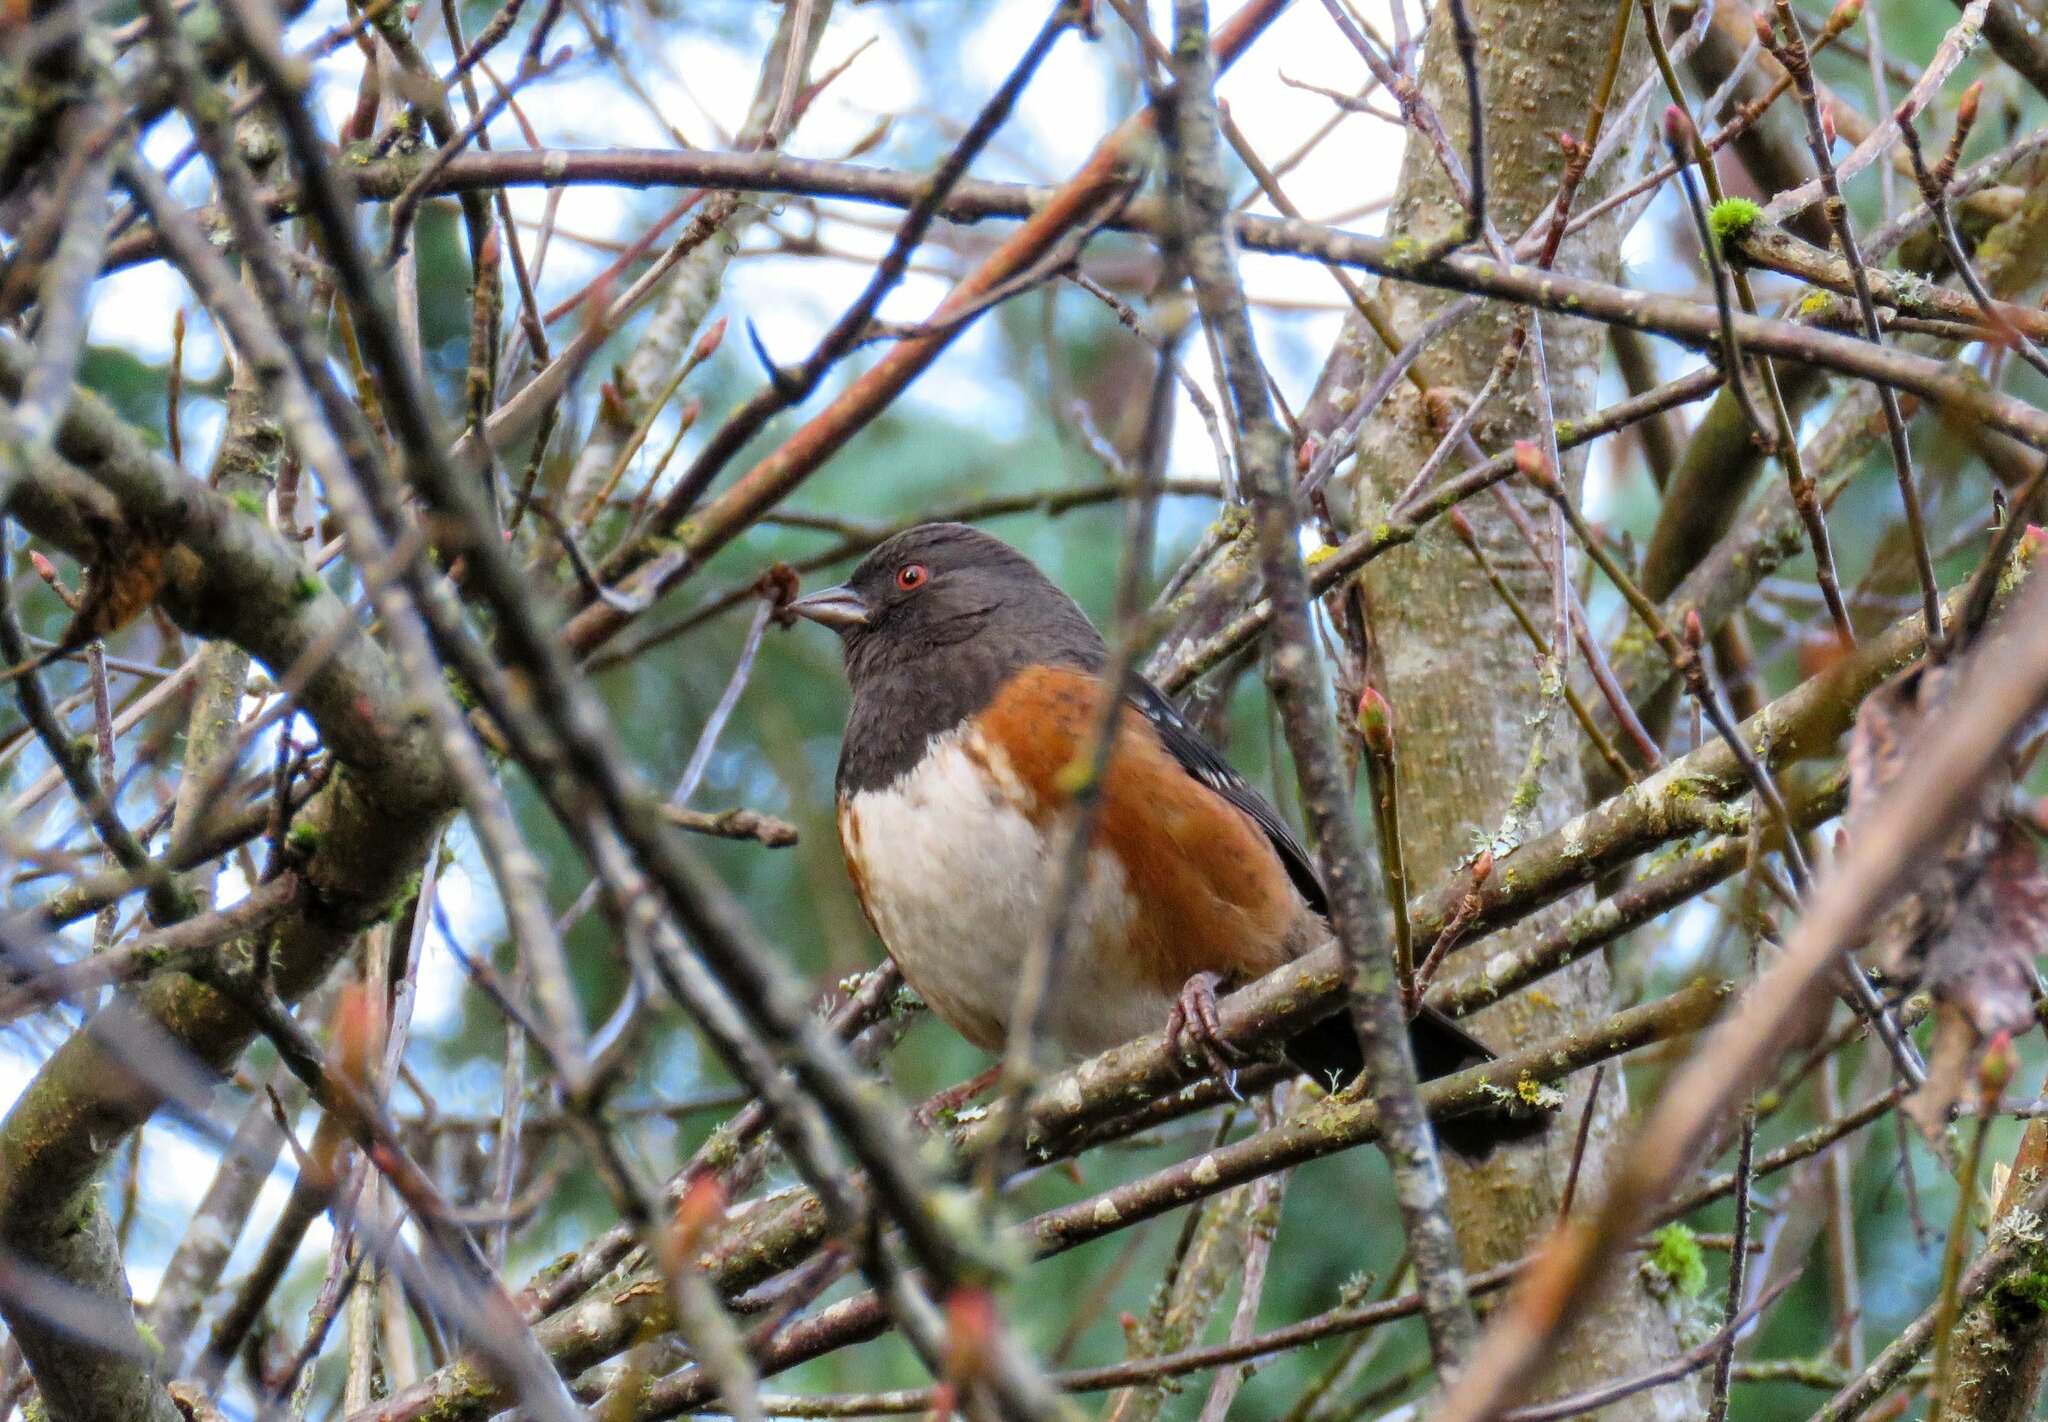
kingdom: Animalia
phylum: Chordata
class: Aves
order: Passeriformes
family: Passerellidae
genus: Pipilo
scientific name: Pipilo maculatus
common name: Spotted towhee
